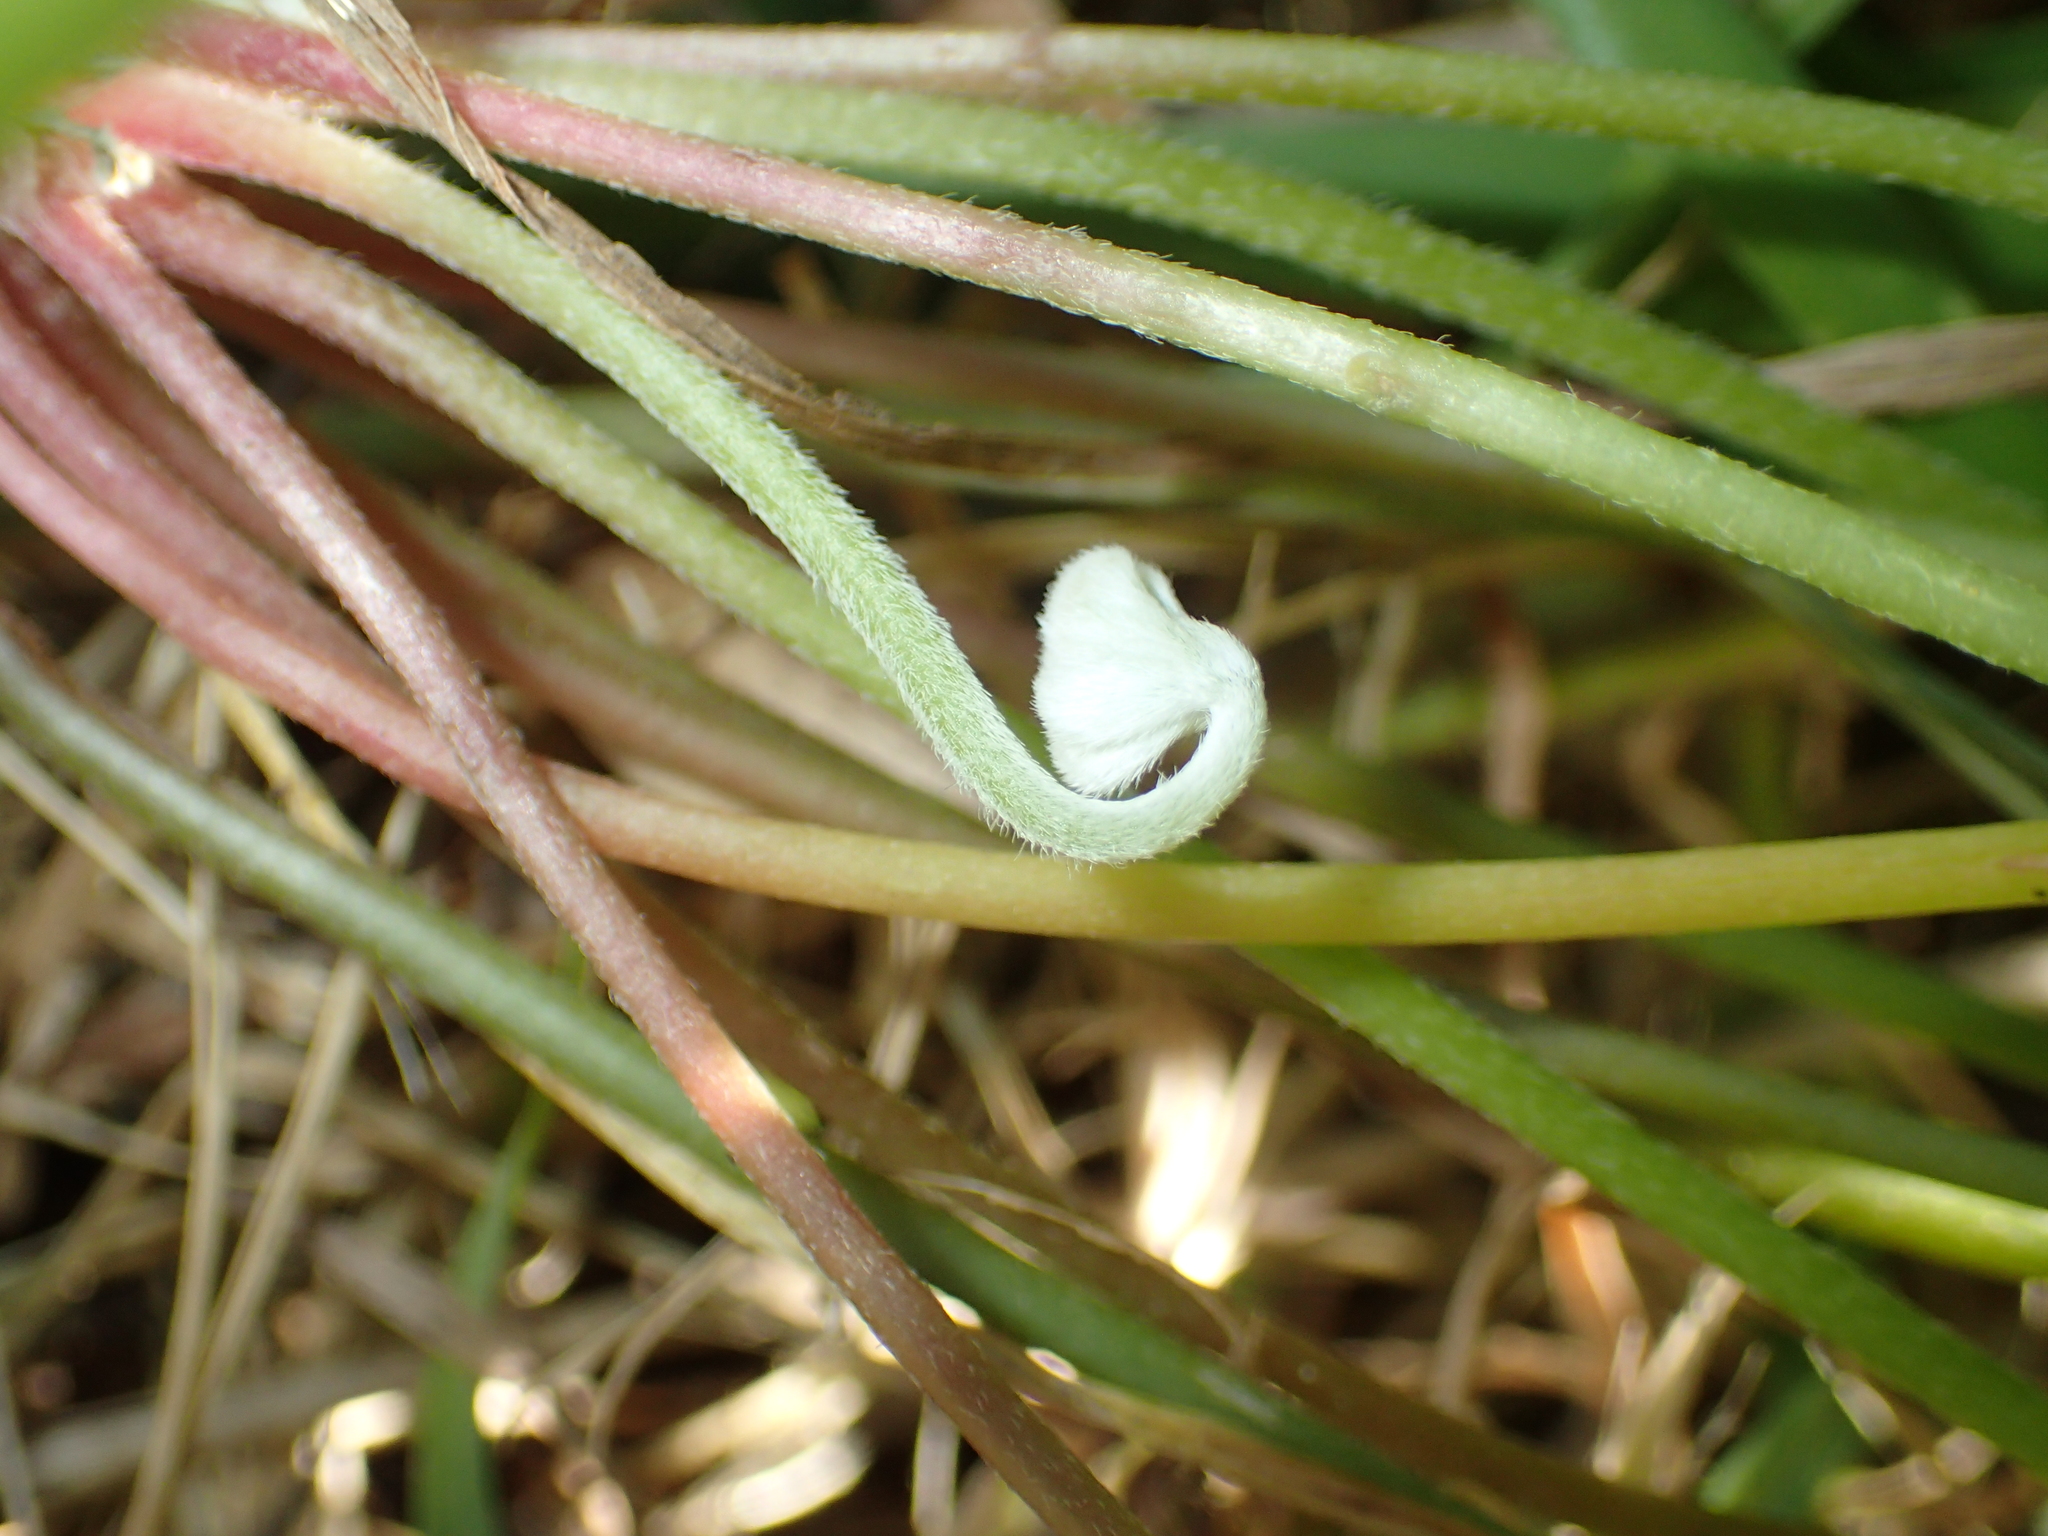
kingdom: Plantae
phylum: Tracheophyta
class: Magnoliopsida
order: Oxalidales
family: Oxalidaceae
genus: Oxalis
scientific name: Oxalis articulata
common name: Pink-sorrel
